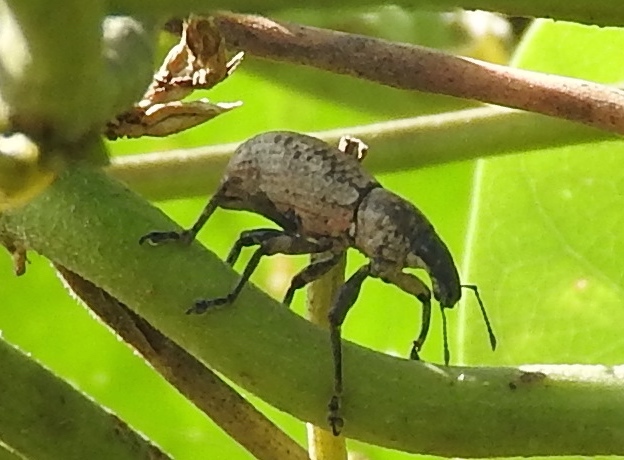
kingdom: Animalia
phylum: Arthropoda
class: Insecta
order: Coleoptera
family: Curculionidae
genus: Epicaerus
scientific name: Epicaerus
